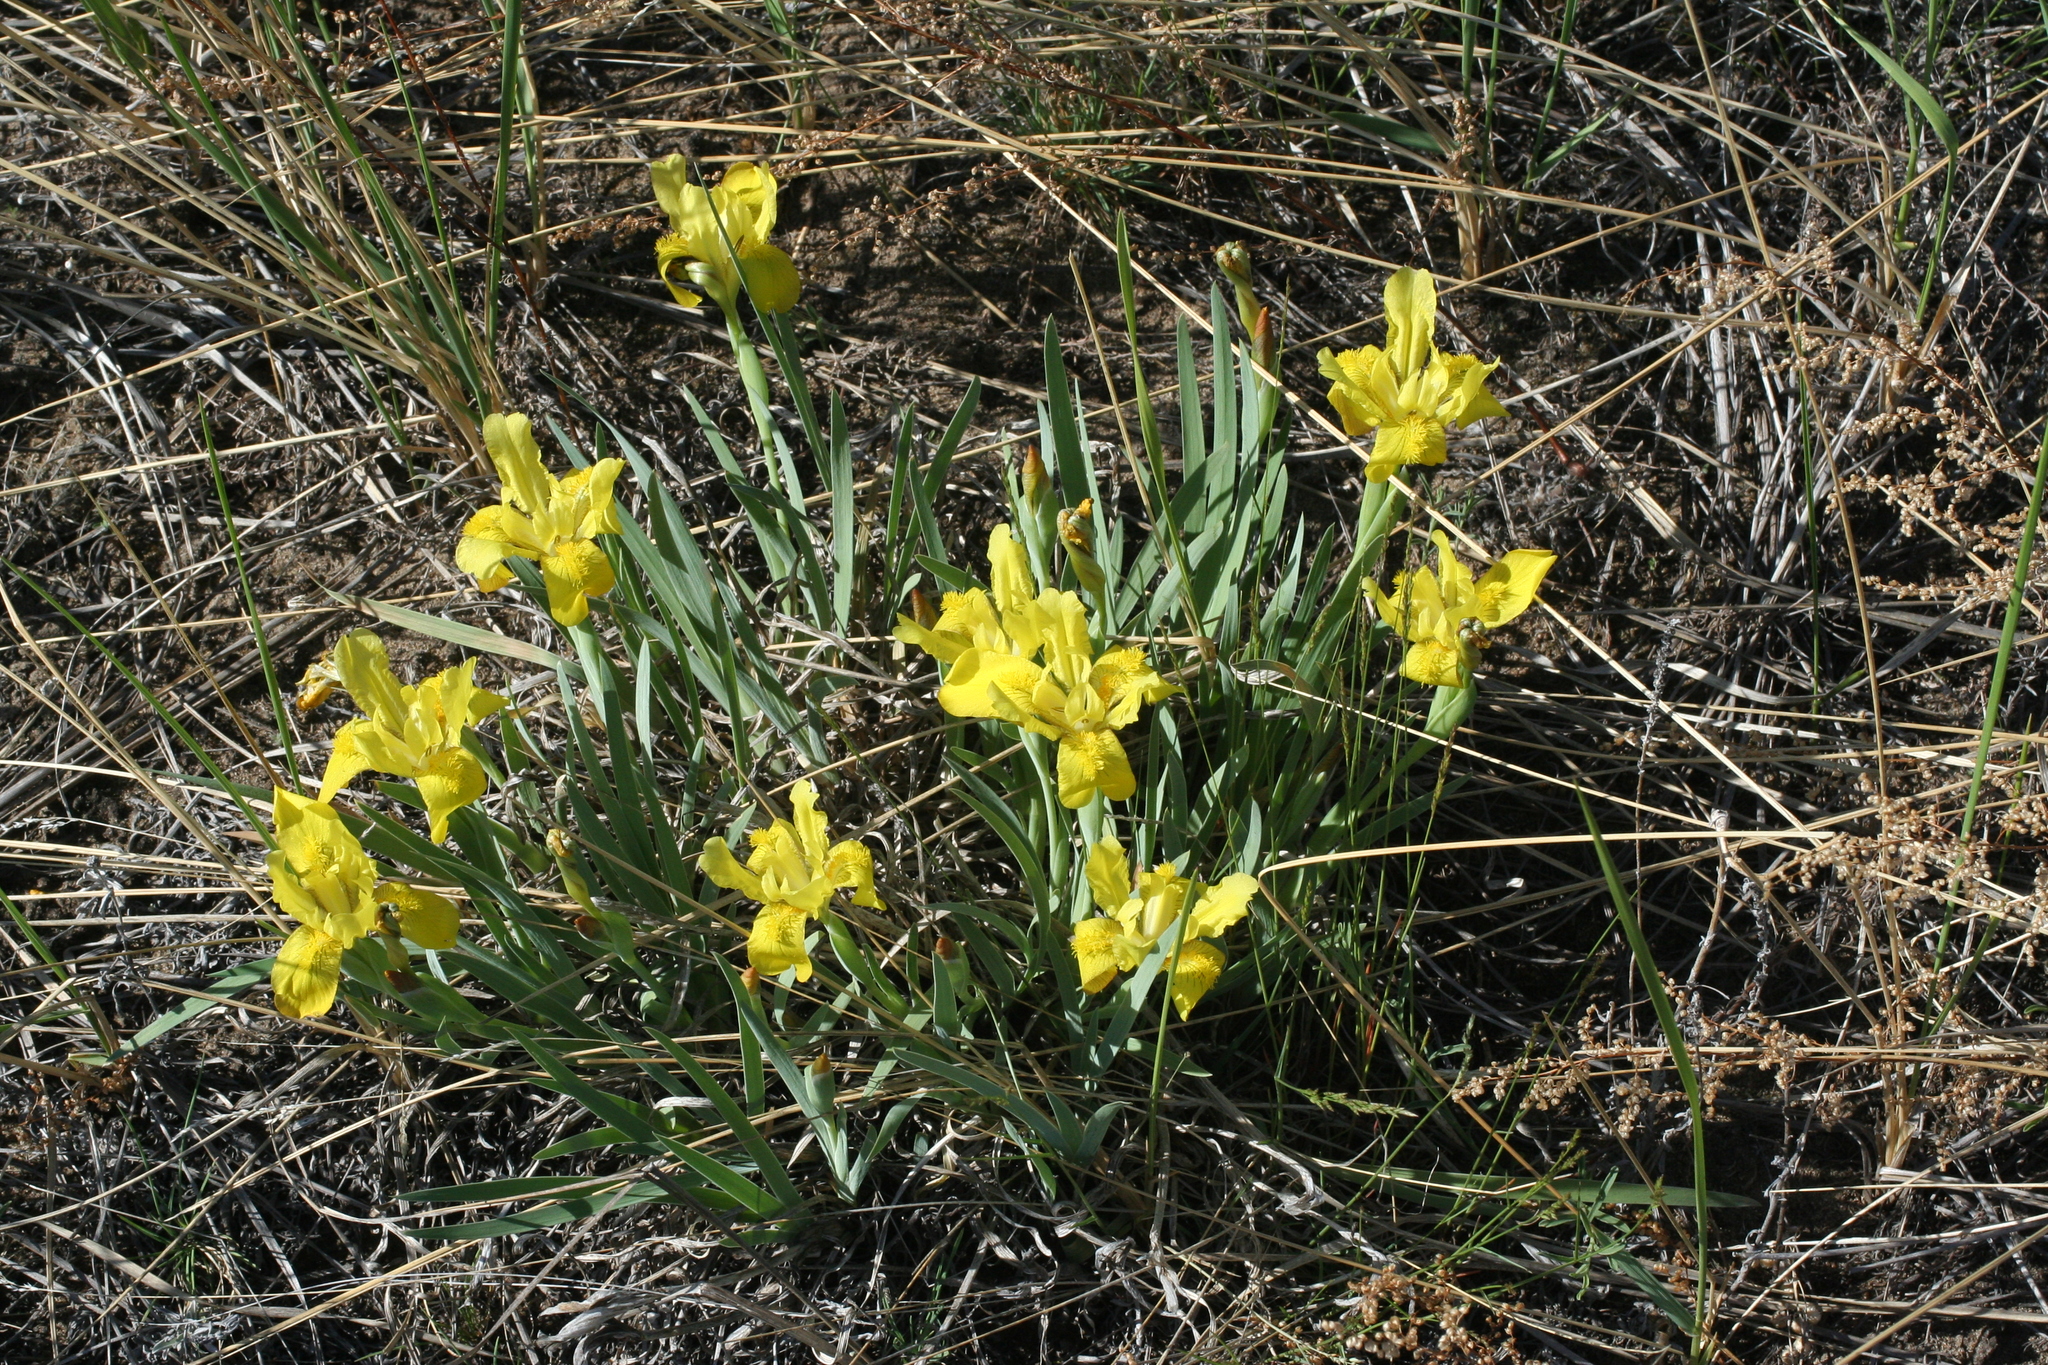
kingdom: Plantae
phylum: Tracheophyta
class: Liliopsida
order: Asparagales
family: Iridaceae
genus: Iris
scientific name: Iris humilis
